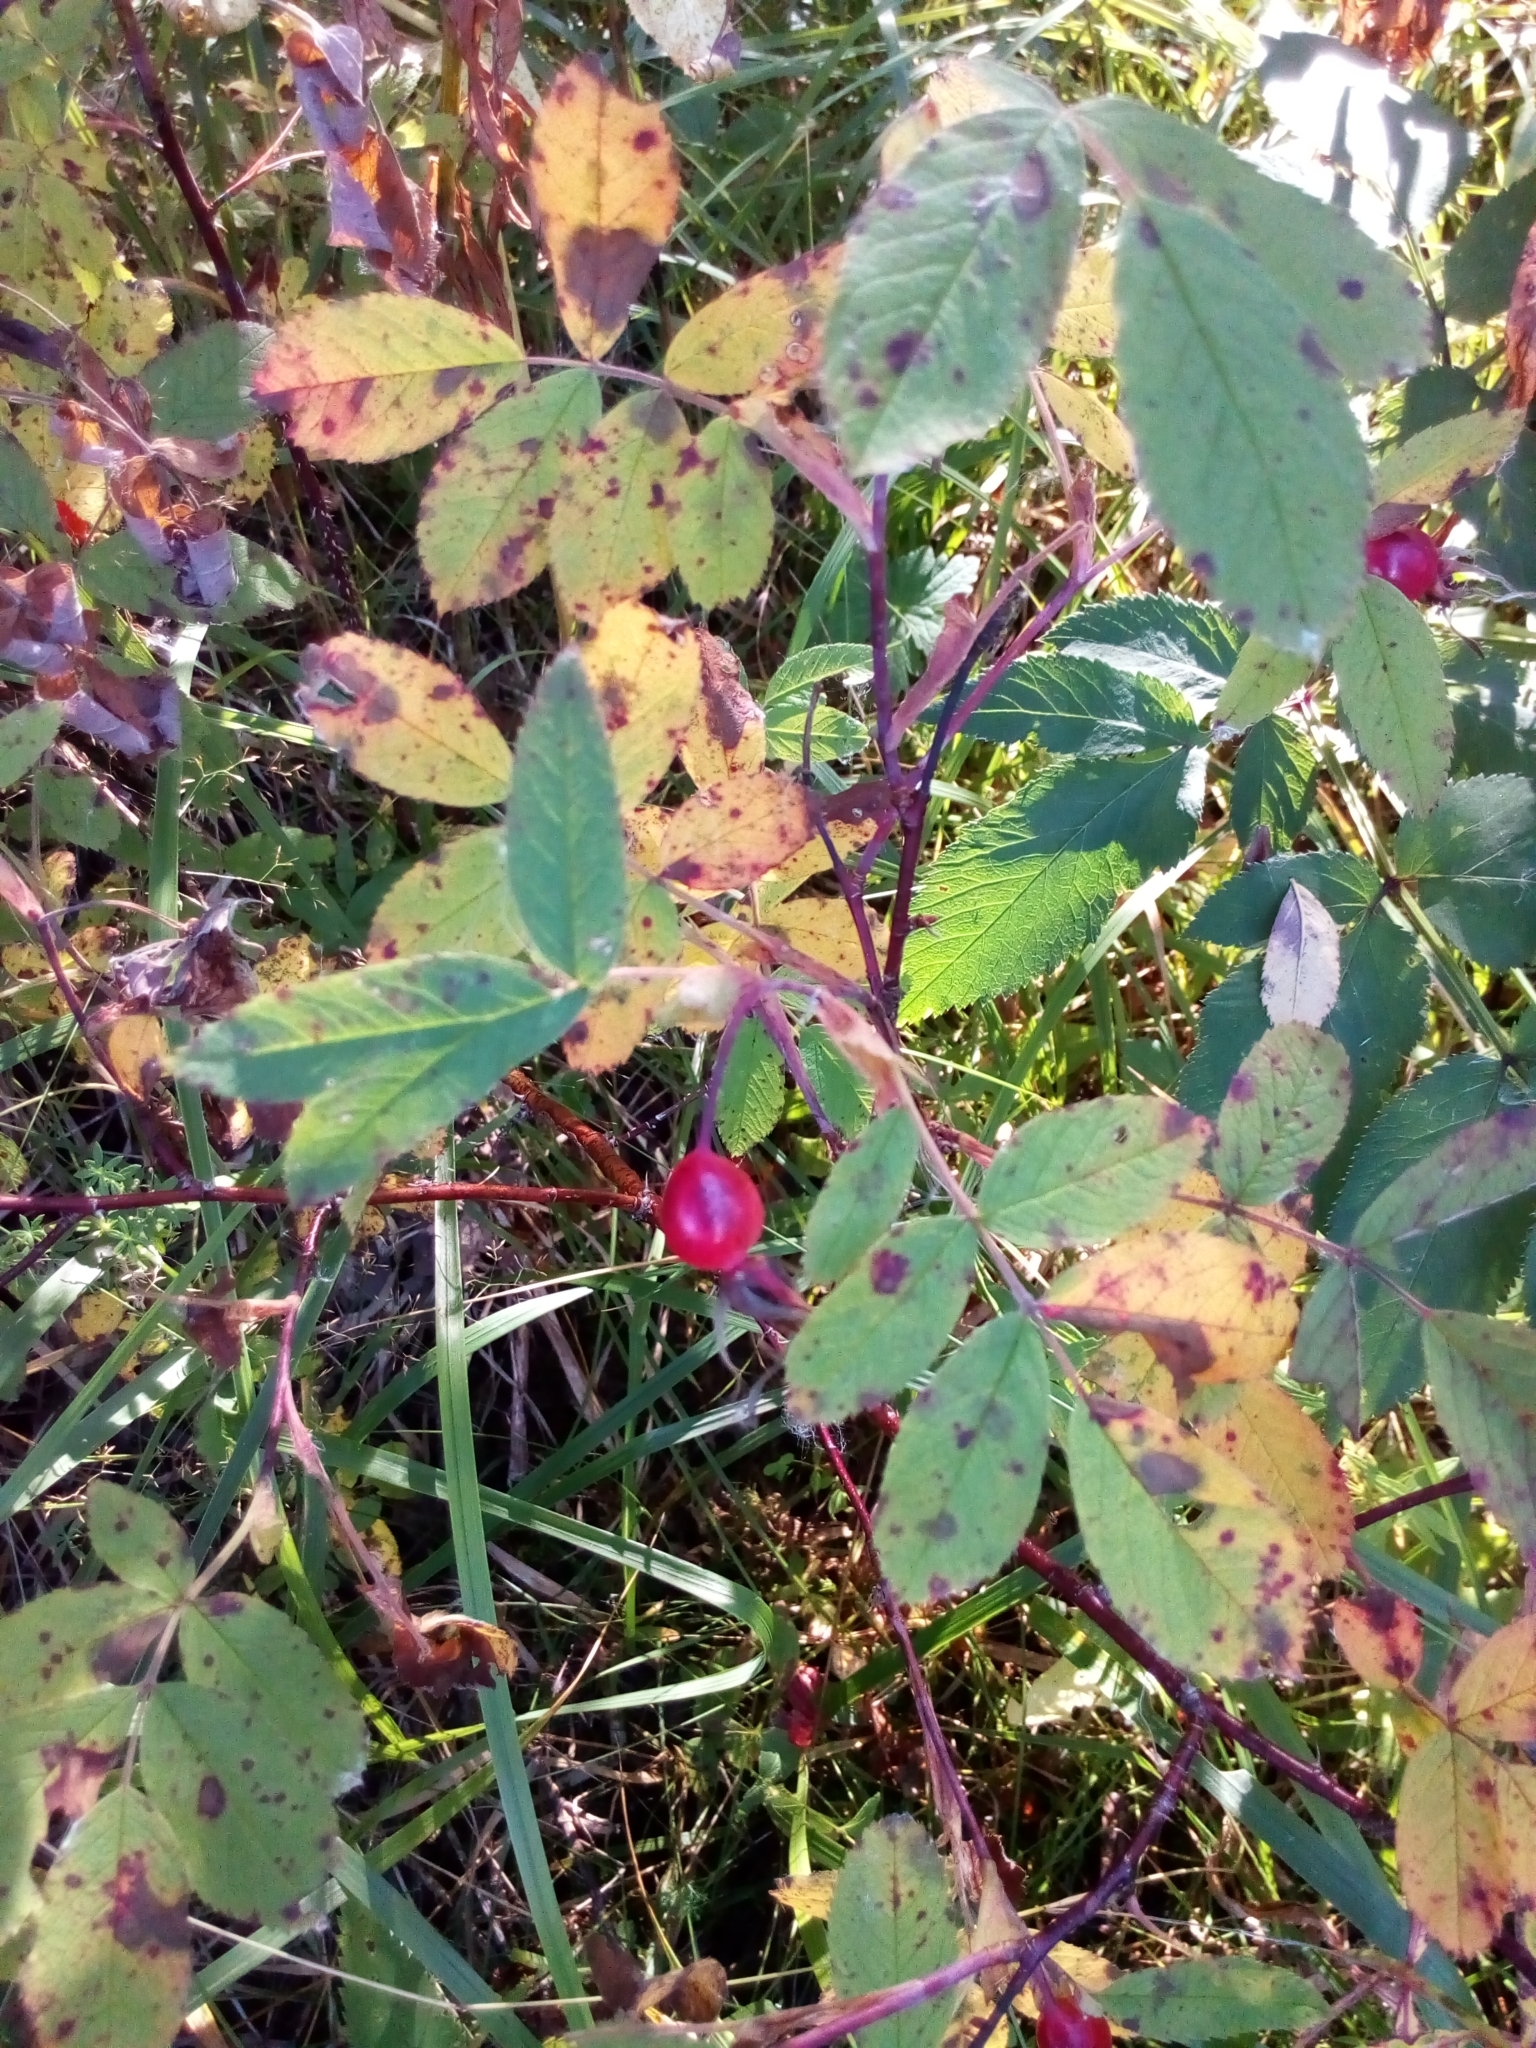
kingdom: Plantae
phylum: Tracheophyta
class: Magnoliopsida
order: Rosales
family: Rosaceae
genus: Rosa
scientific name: Rosa majalis
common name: Cinnamon rose
